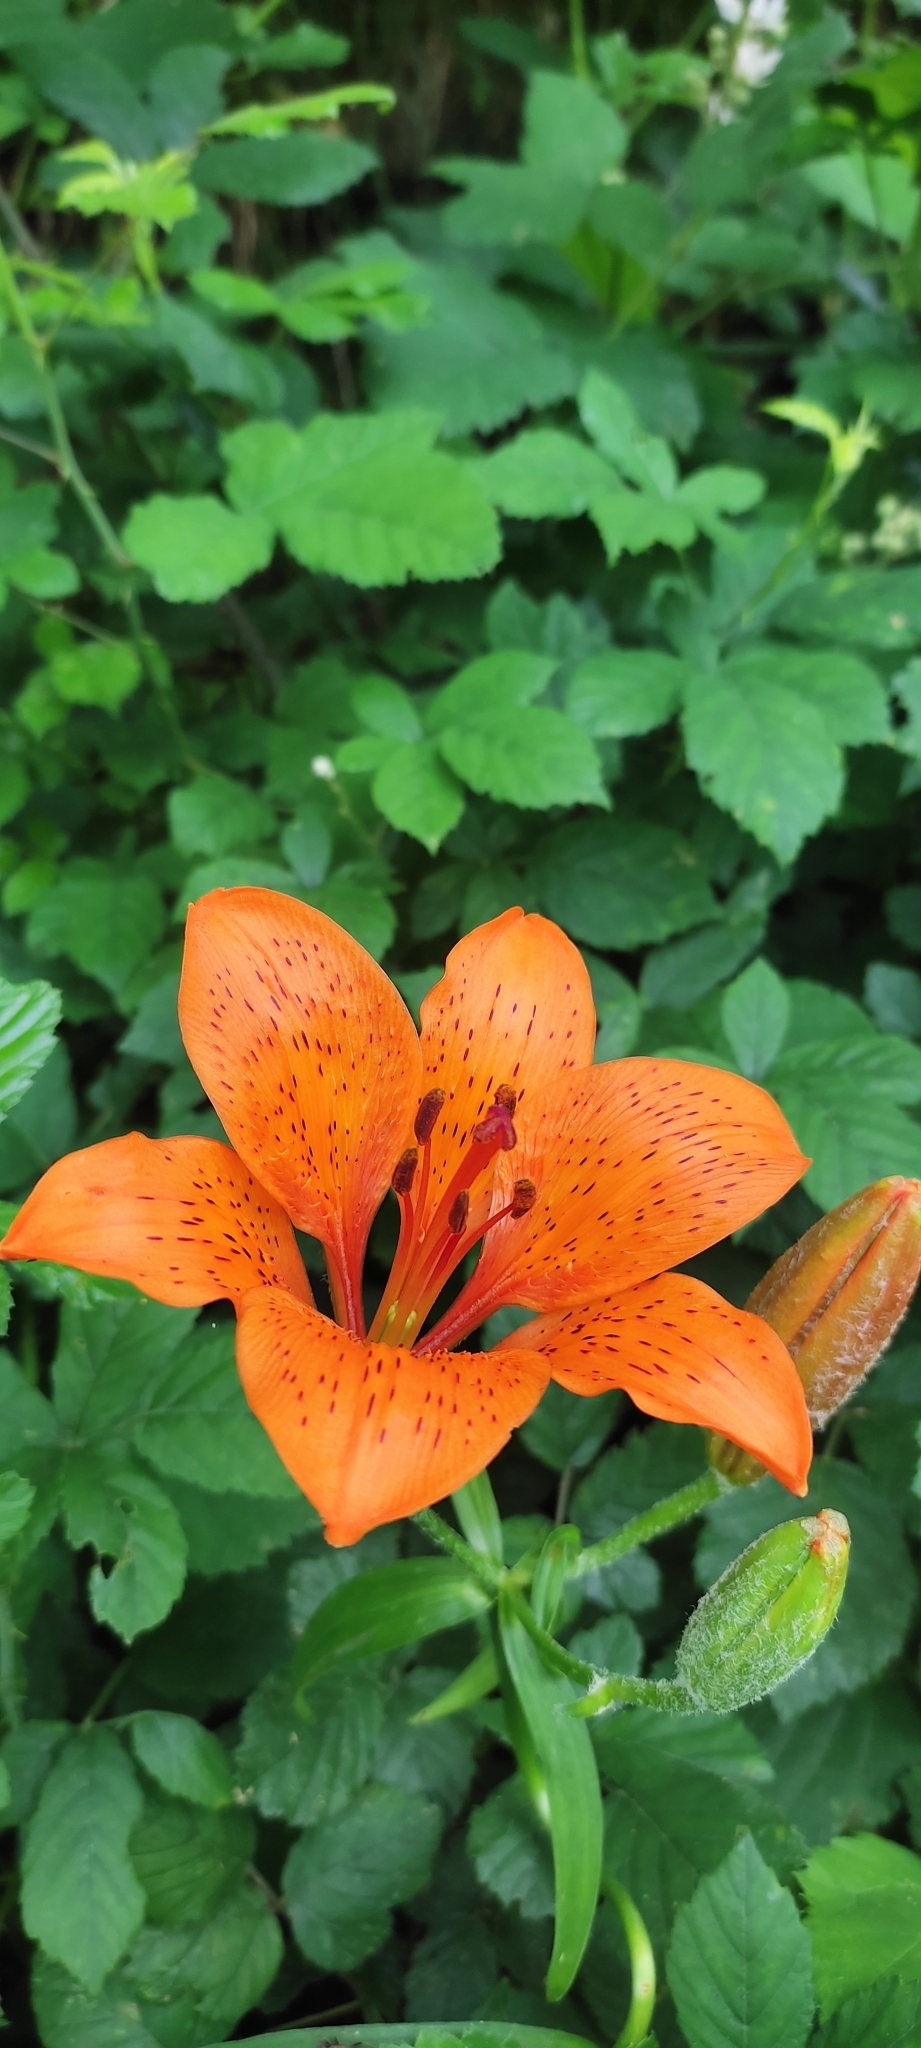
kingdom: Plantae
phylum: Tracheophyta
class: Liliopsida
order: Liliales
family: Liliaceae
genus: Lilium
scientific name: Lilium bulbiferum
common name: Orange lily
